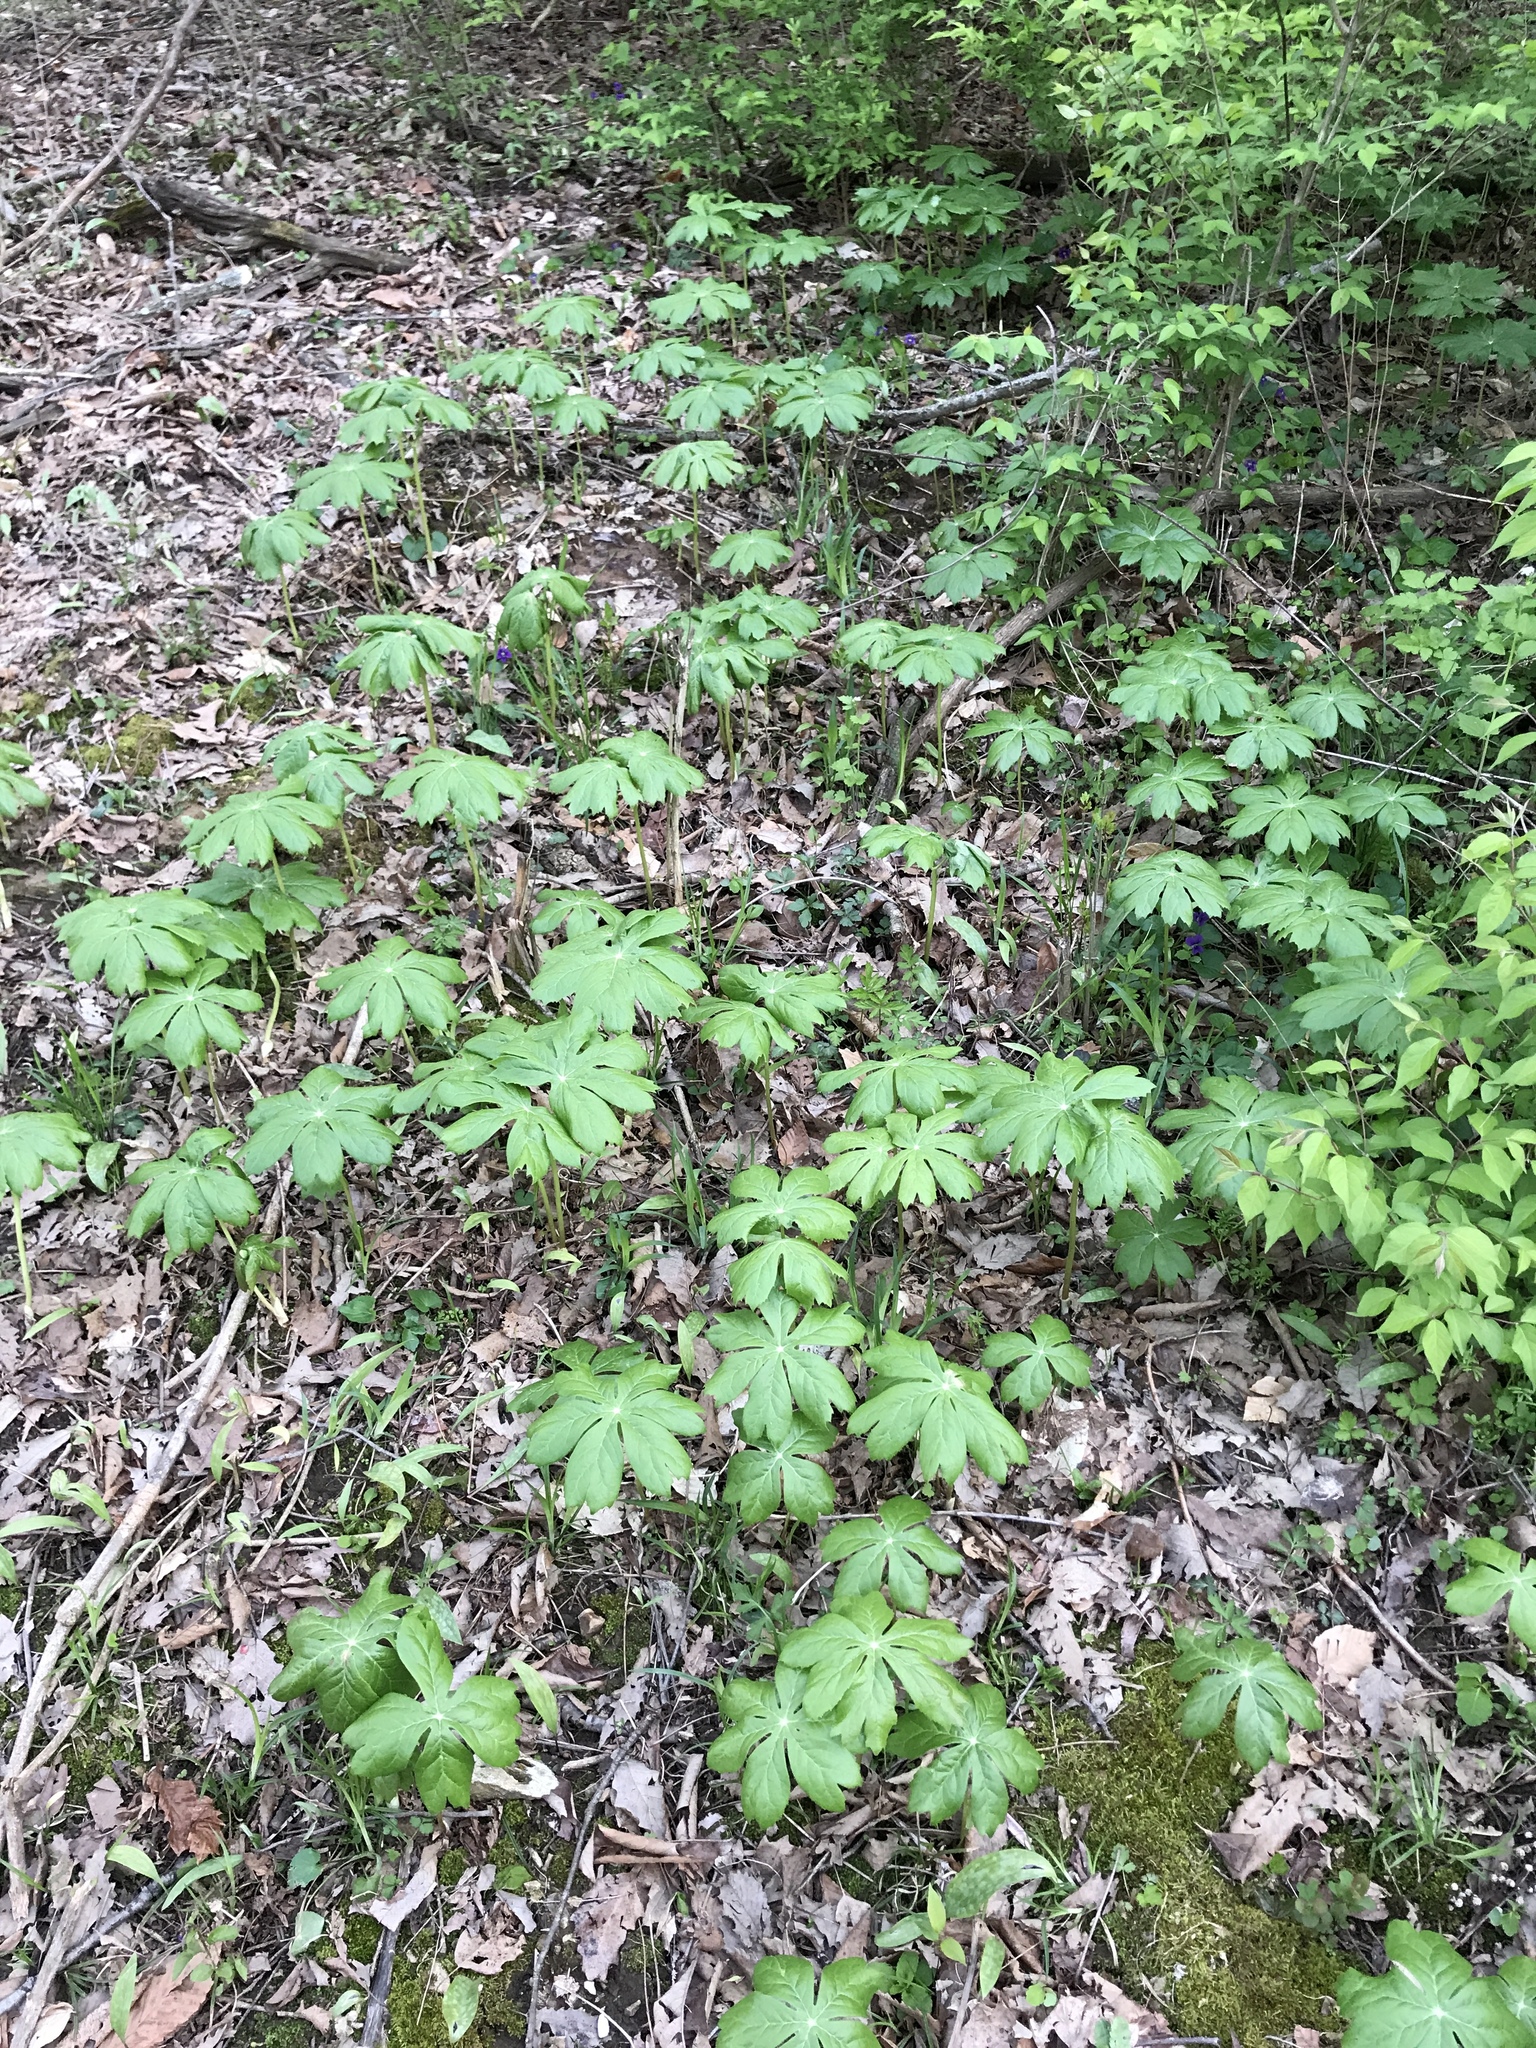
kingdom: Plantae
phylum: Tracheophyta
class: Magnoliopsida
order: Ranunculales
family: Berberidaceae
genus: Podophyllum
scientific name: Podophyllum peltatum
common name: Wild mandrake
